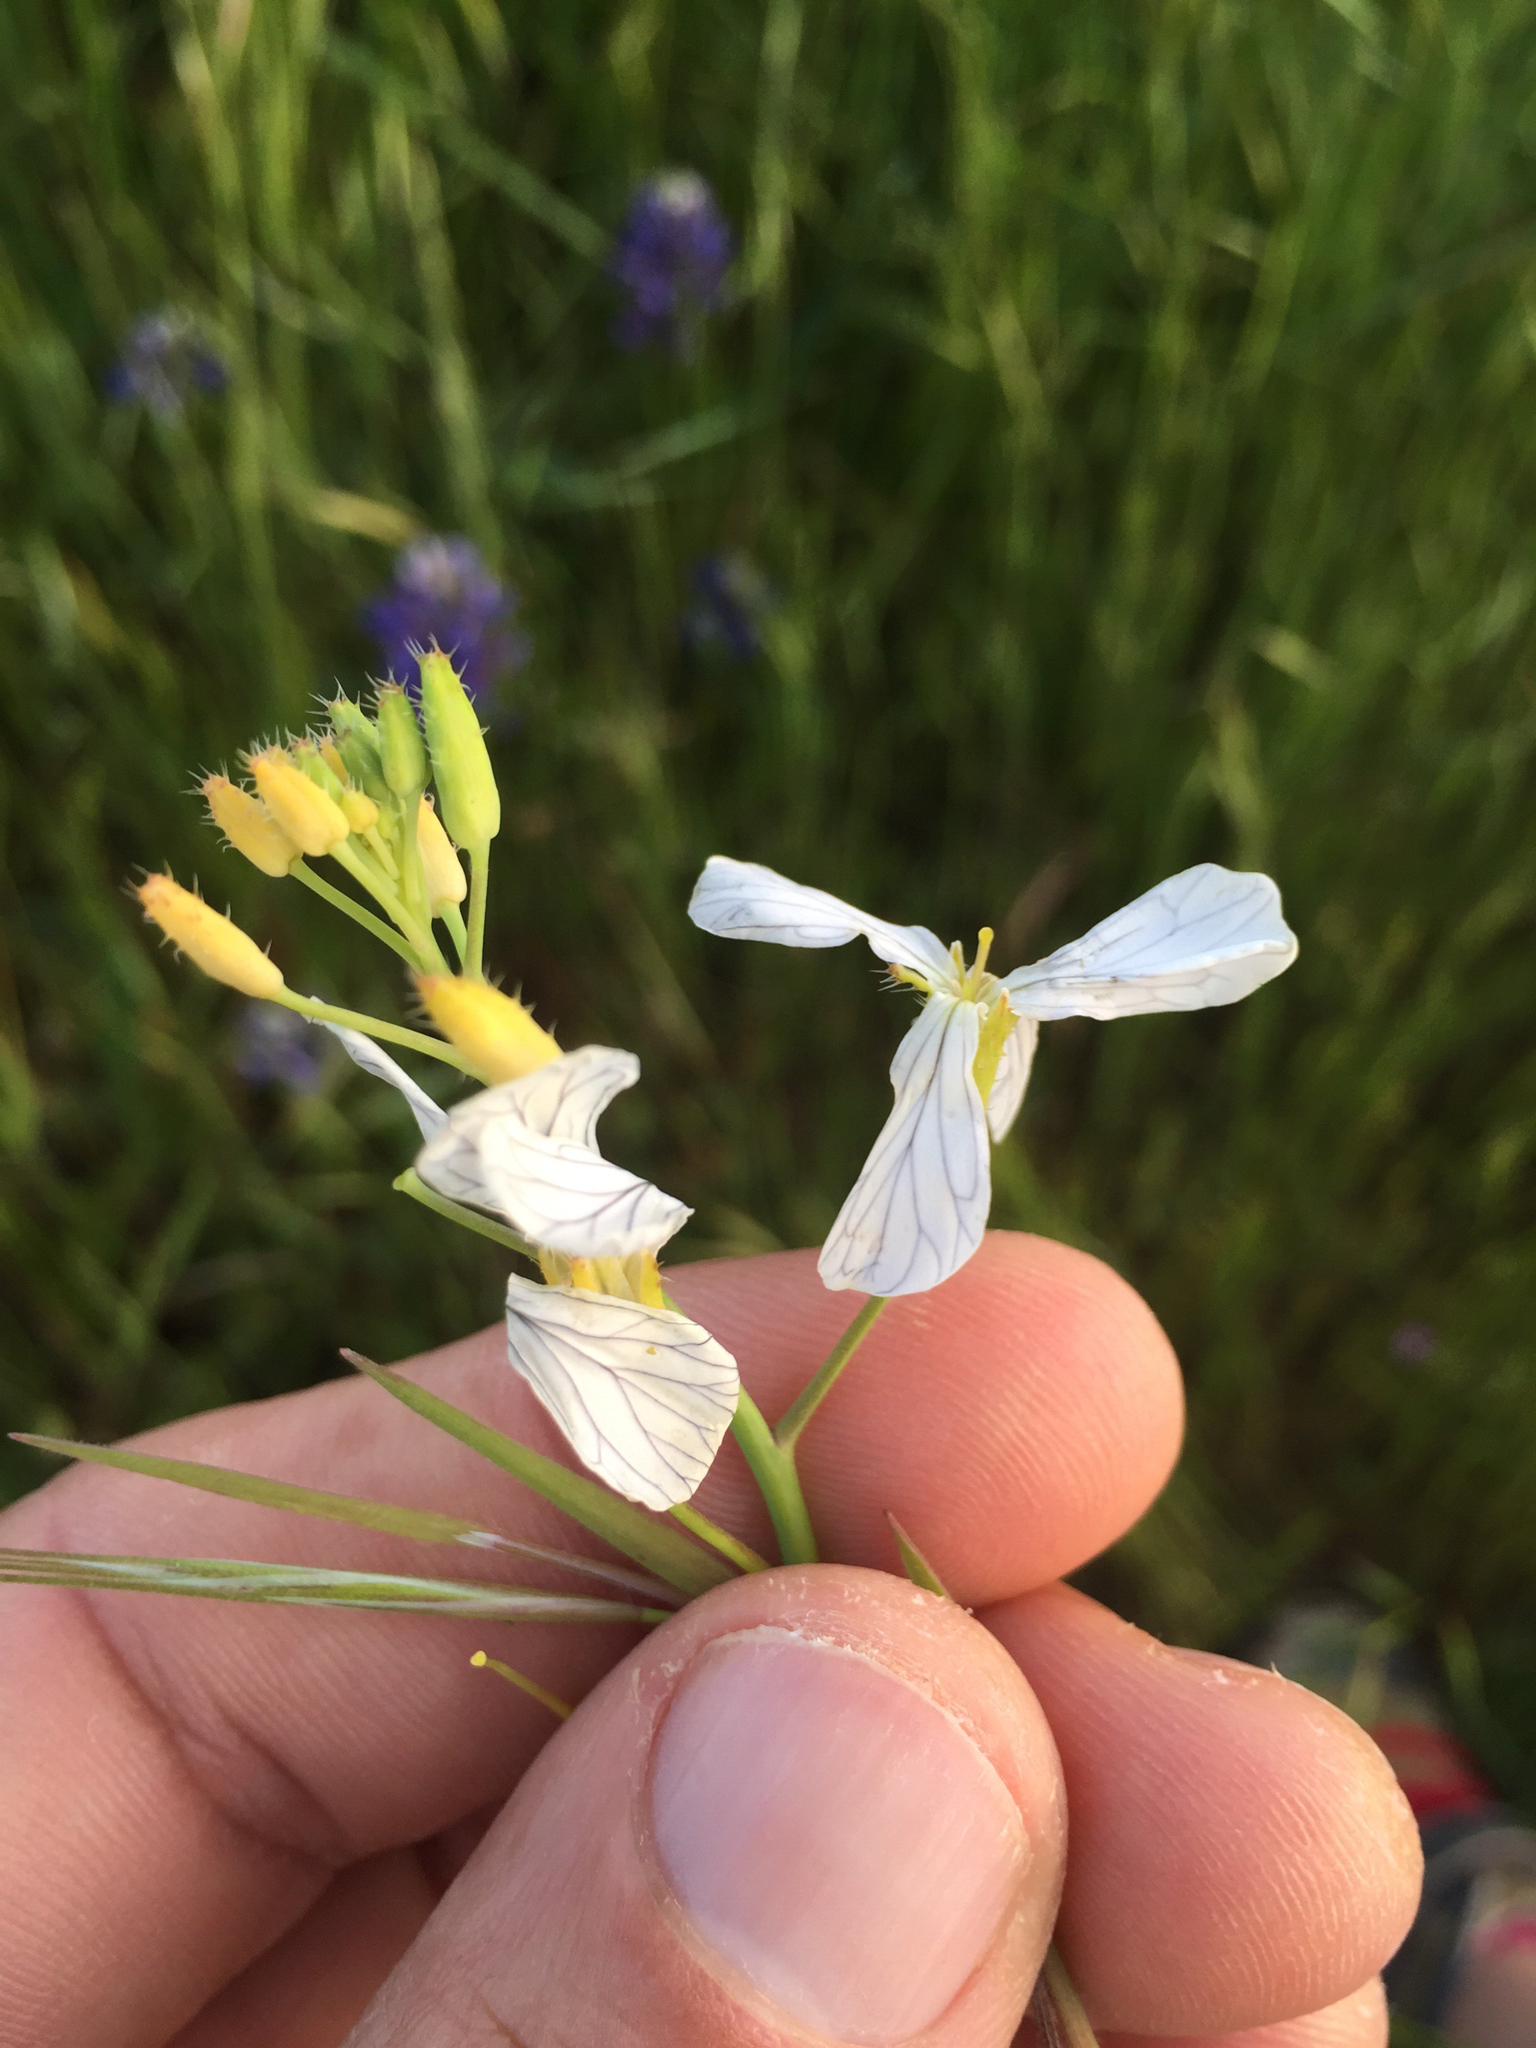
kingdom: Plantae
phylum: Tracheophyta
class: Magnoliopsida
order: Brassicales
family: Brassicaceae
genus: Raphanus
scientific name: Raphanus sativus
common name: Cultivated radish
